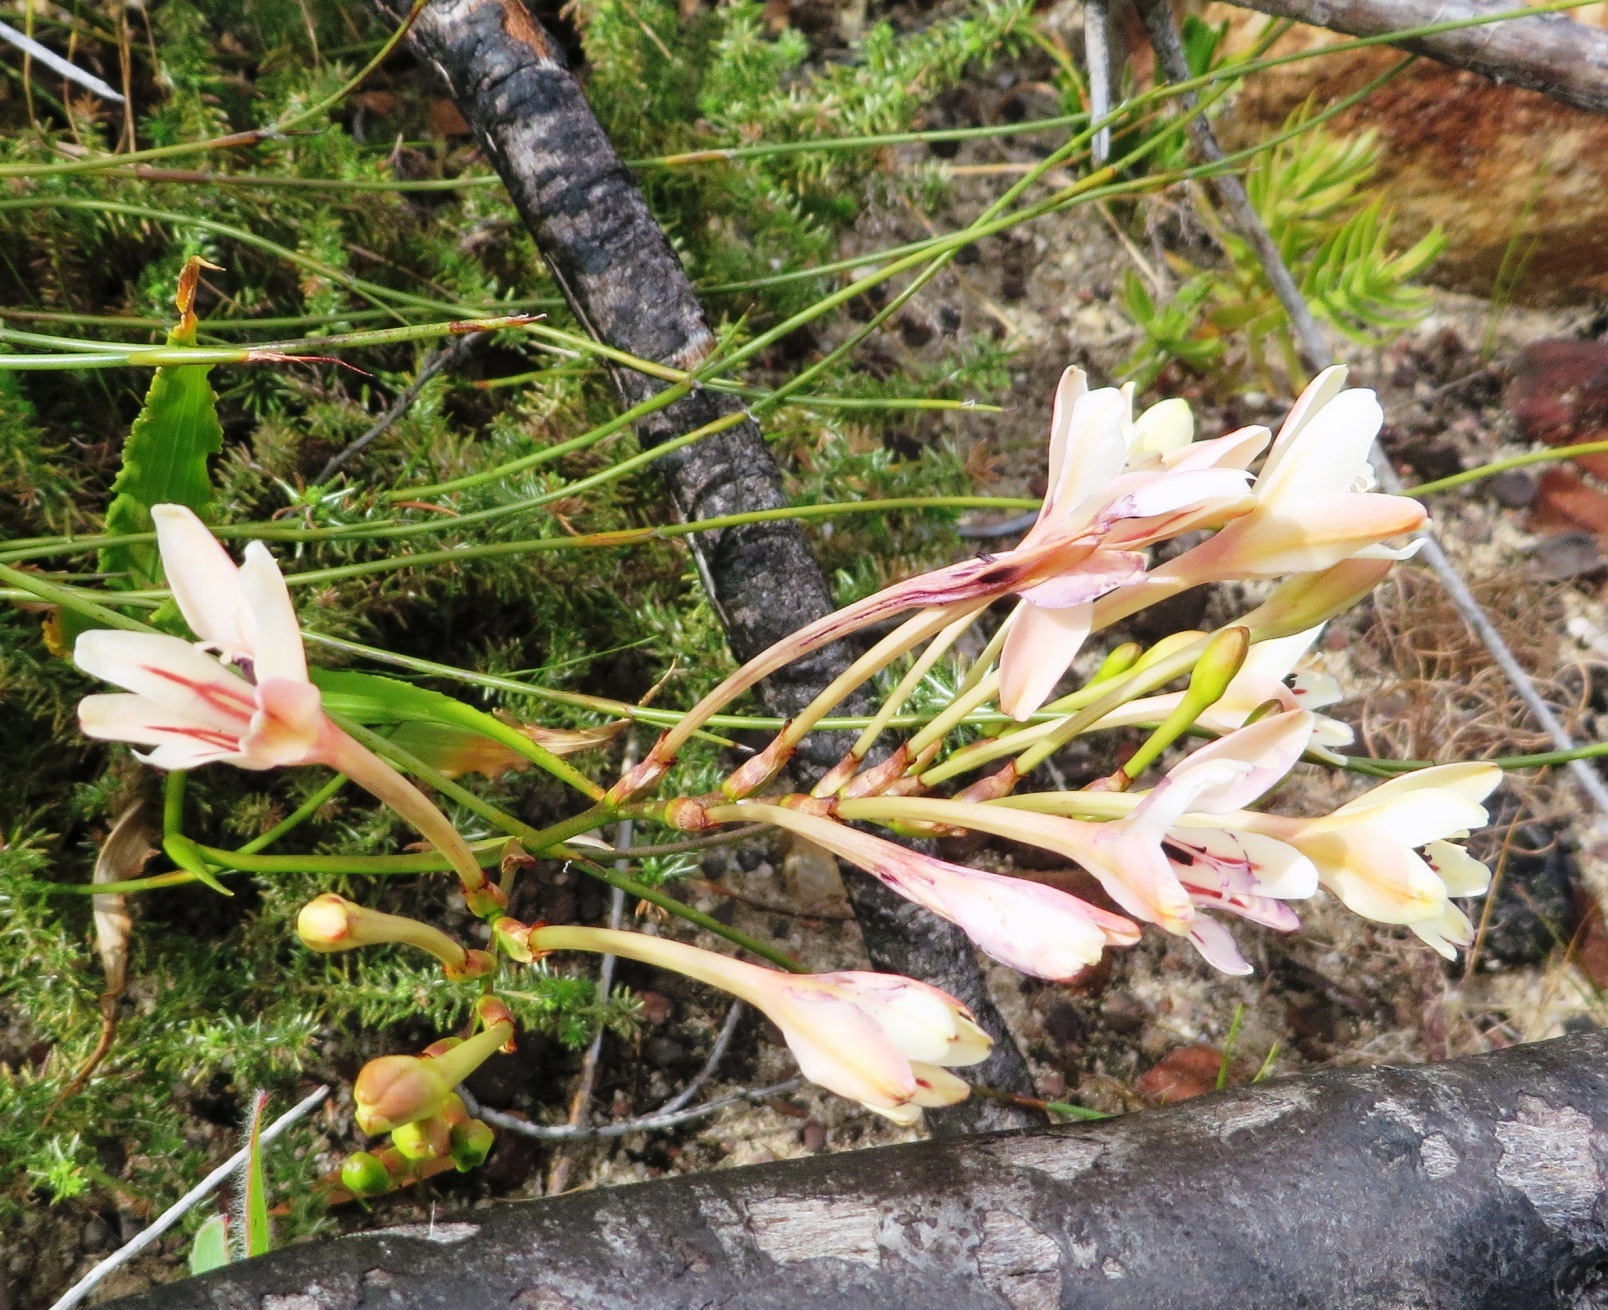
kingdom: Plantae
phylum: Tracheophyta
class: Liliopsida
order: Asparagales
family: Iridaceae
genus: Tritonia
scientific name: Tritonia undulata
